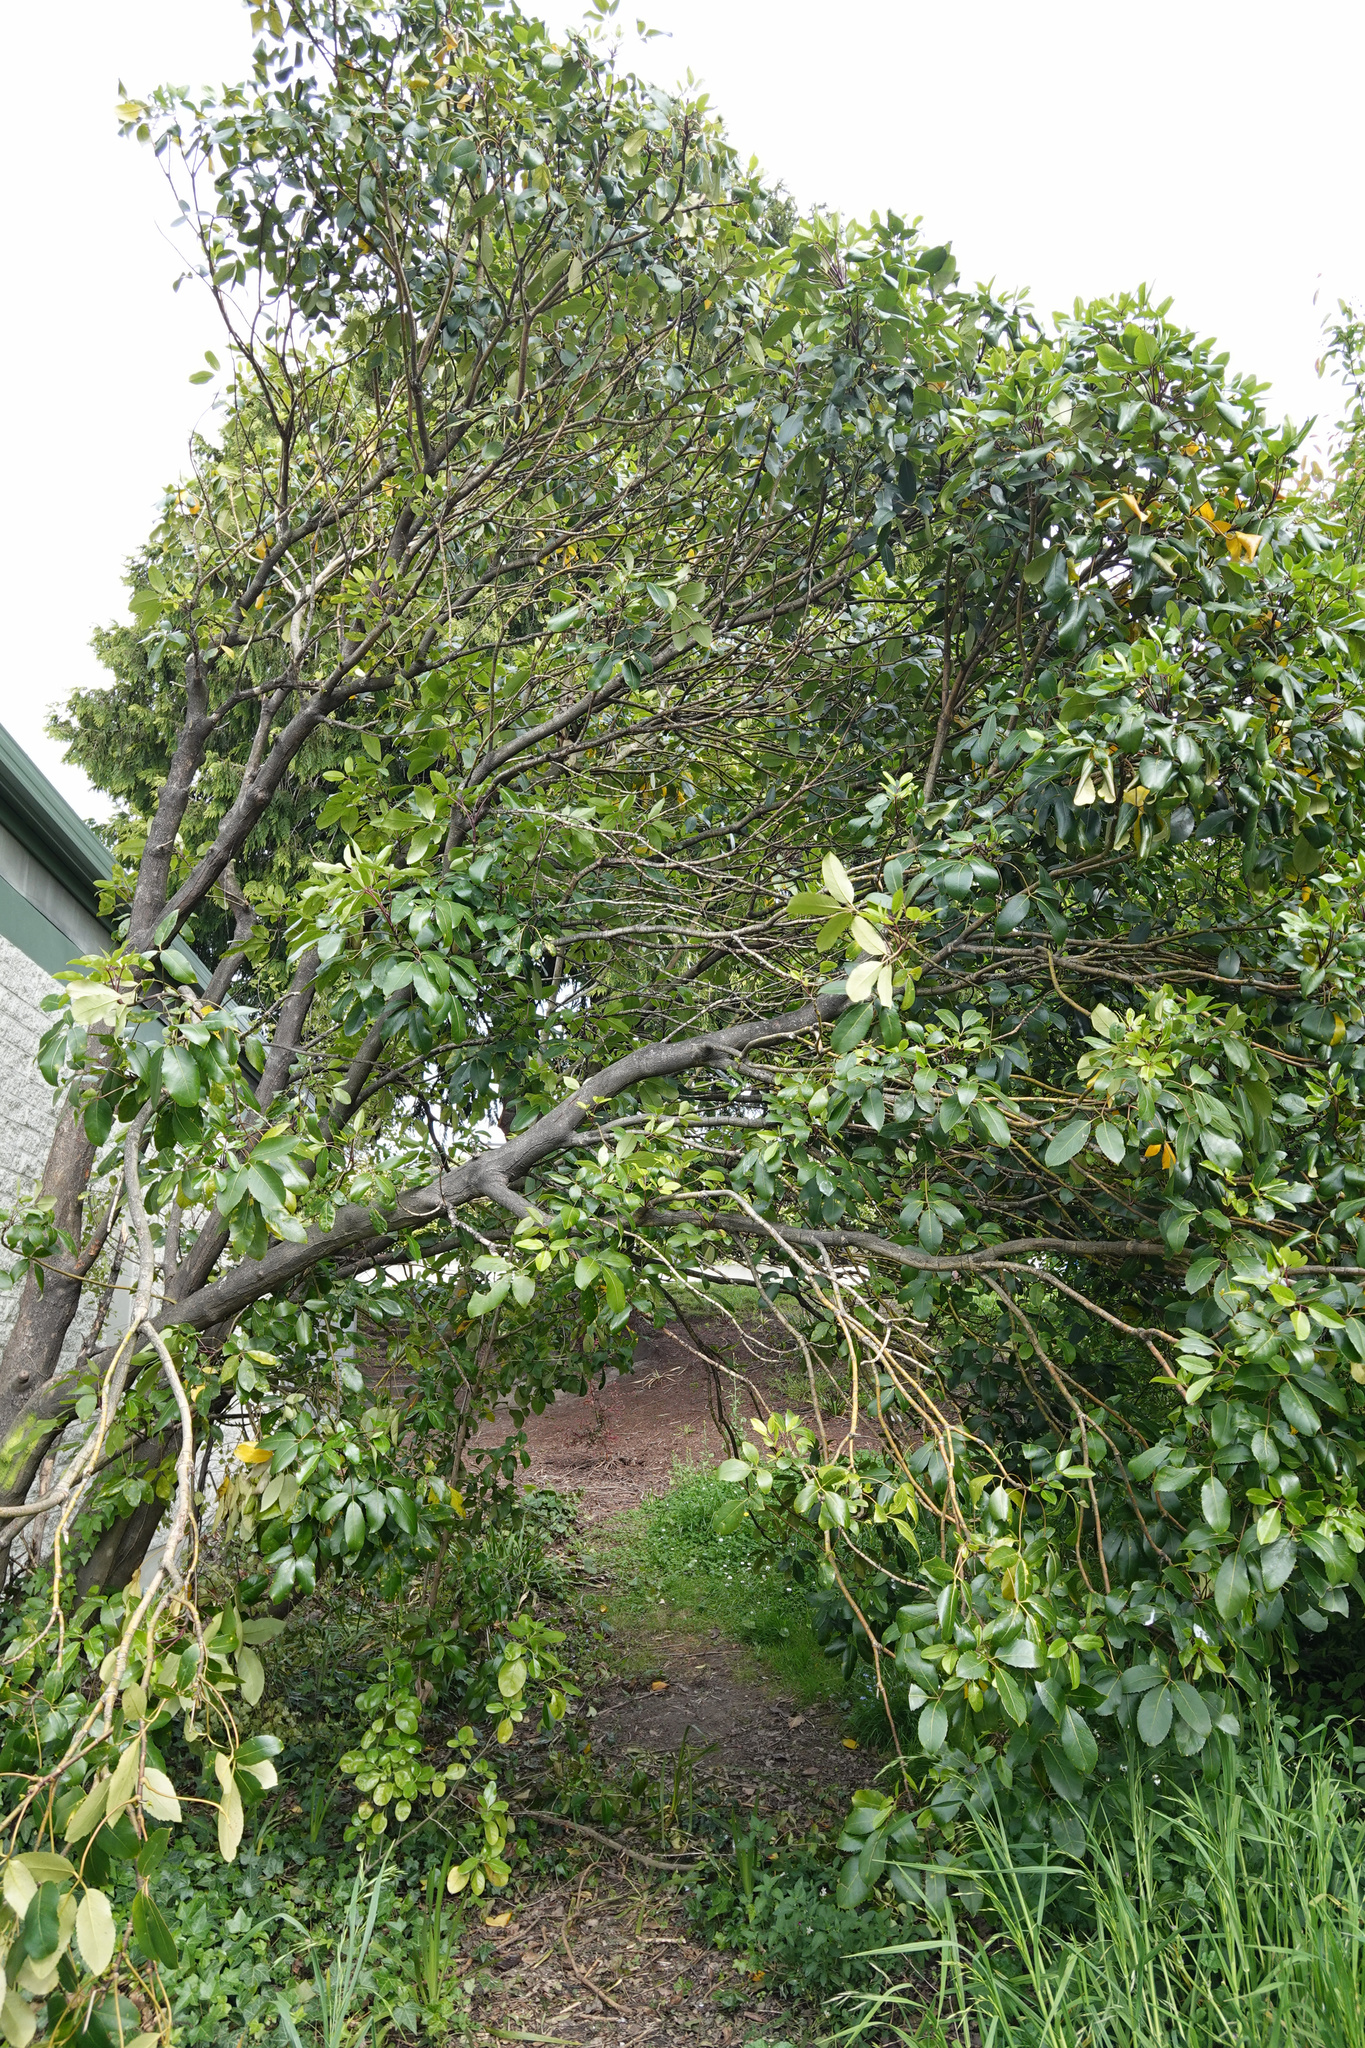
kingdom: Plantae
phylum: Tracheophyta
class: Magnoliopsida
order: Apiales
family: Araliaceae
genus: Neopanax
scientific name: Neopanax arboreus
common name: Five-fingers
